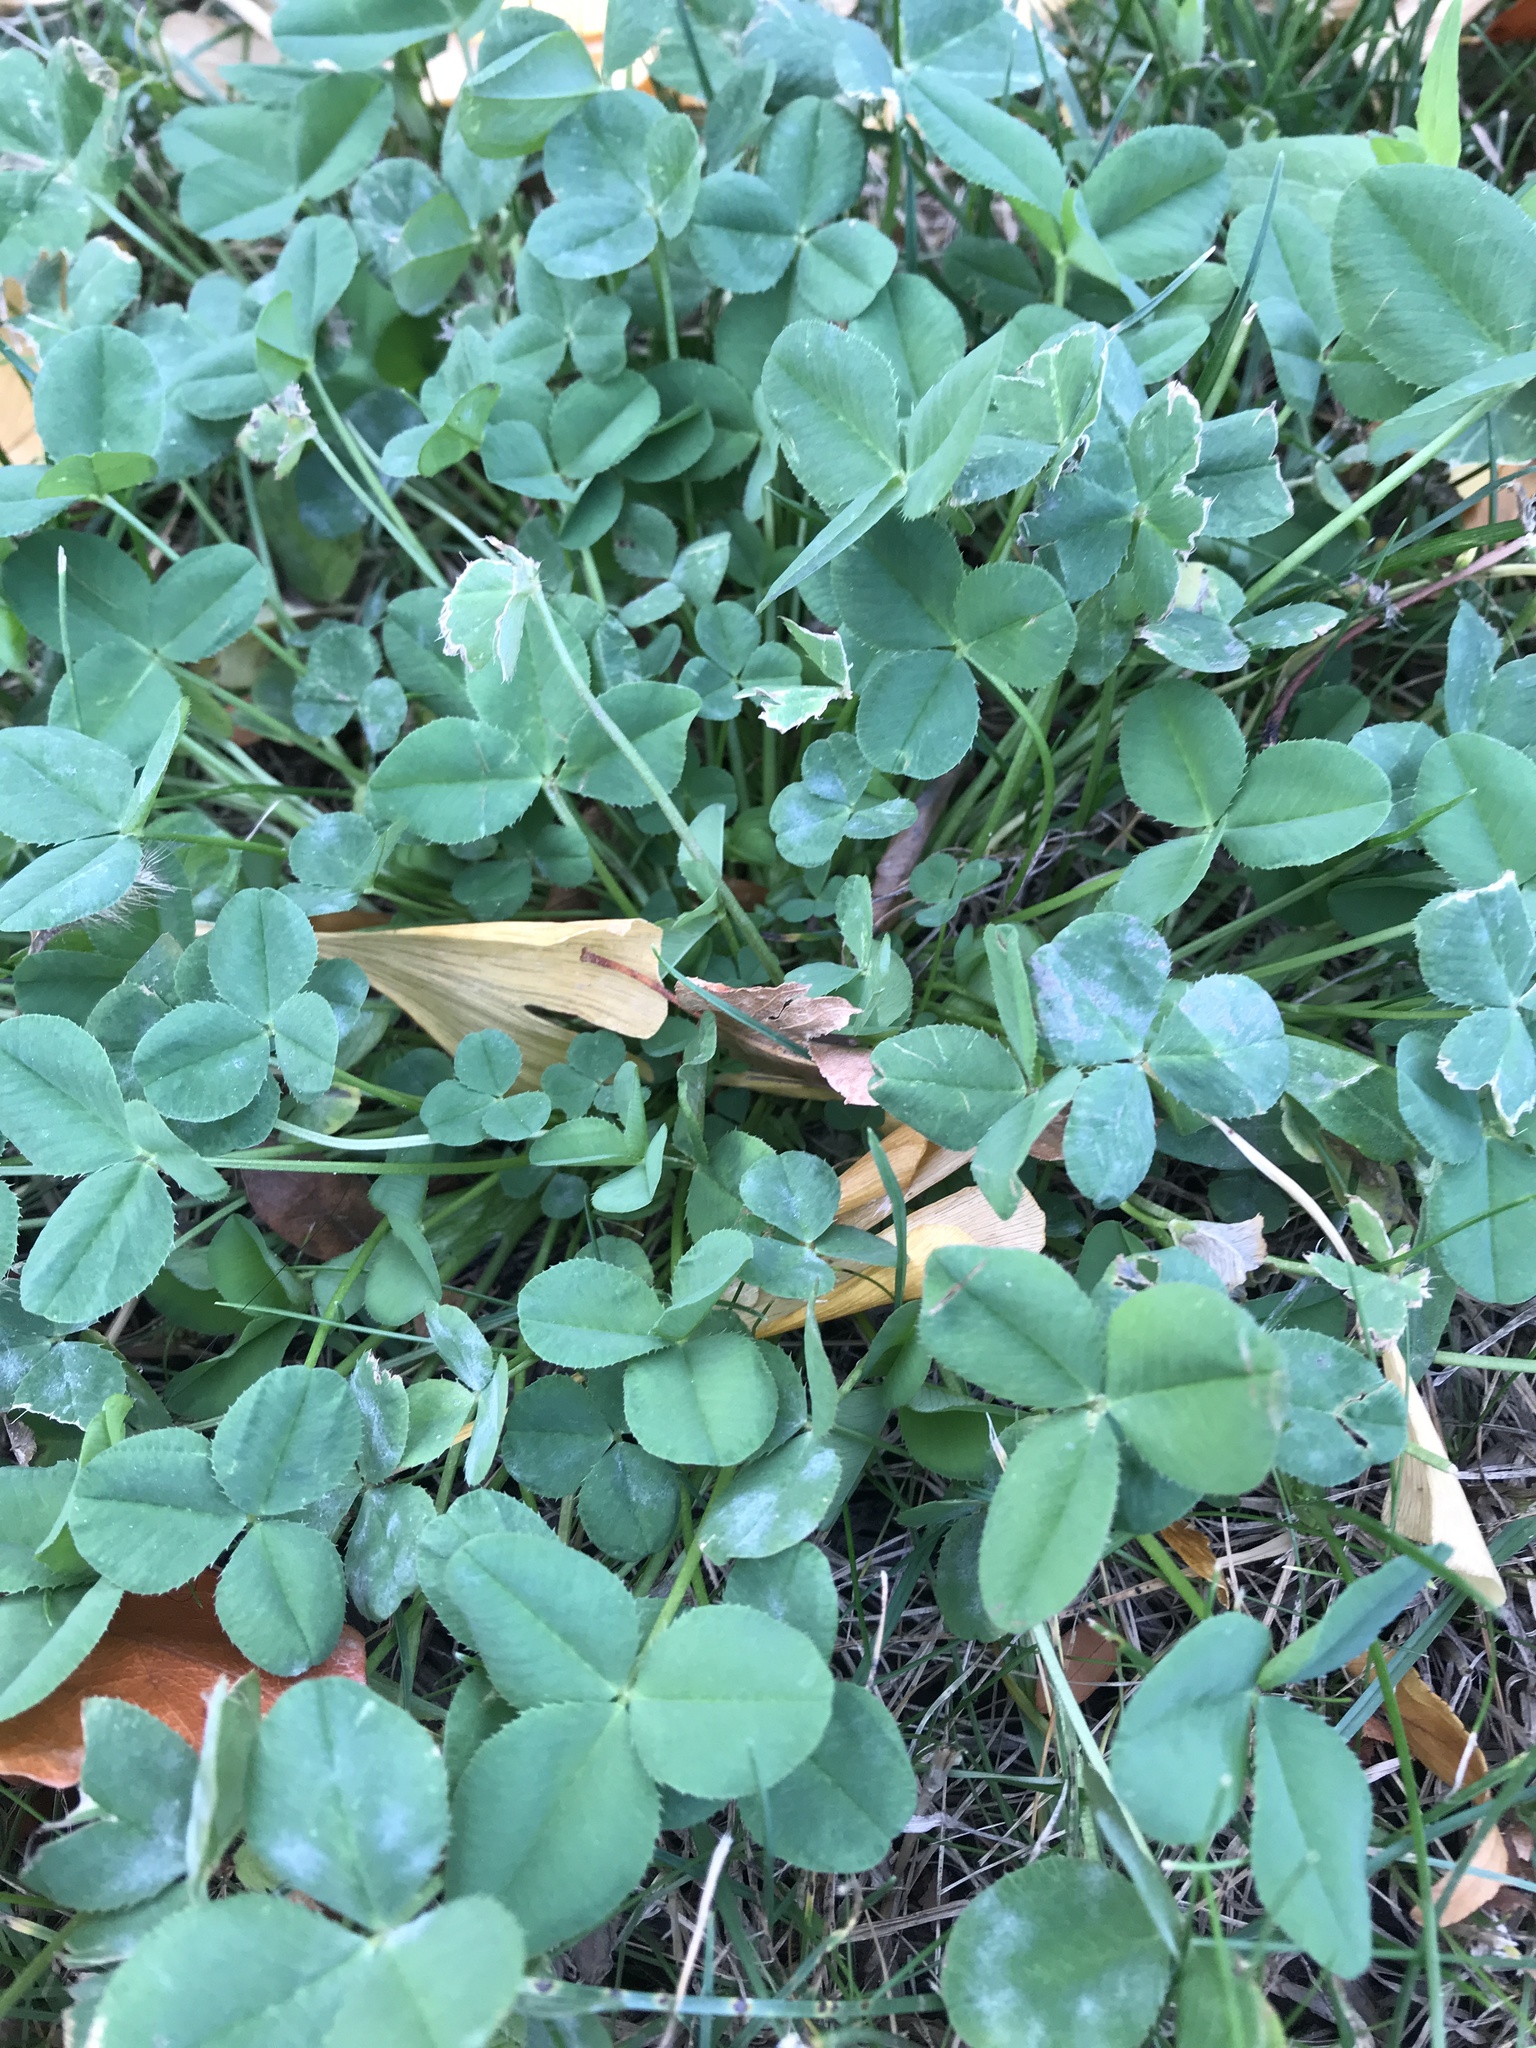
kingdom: Plantae
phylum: Tracheophyta
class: Magnoliopsida
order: Fabales
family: Fabaceae
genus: Trifolium
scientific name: Trifolium repens
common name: White clover
